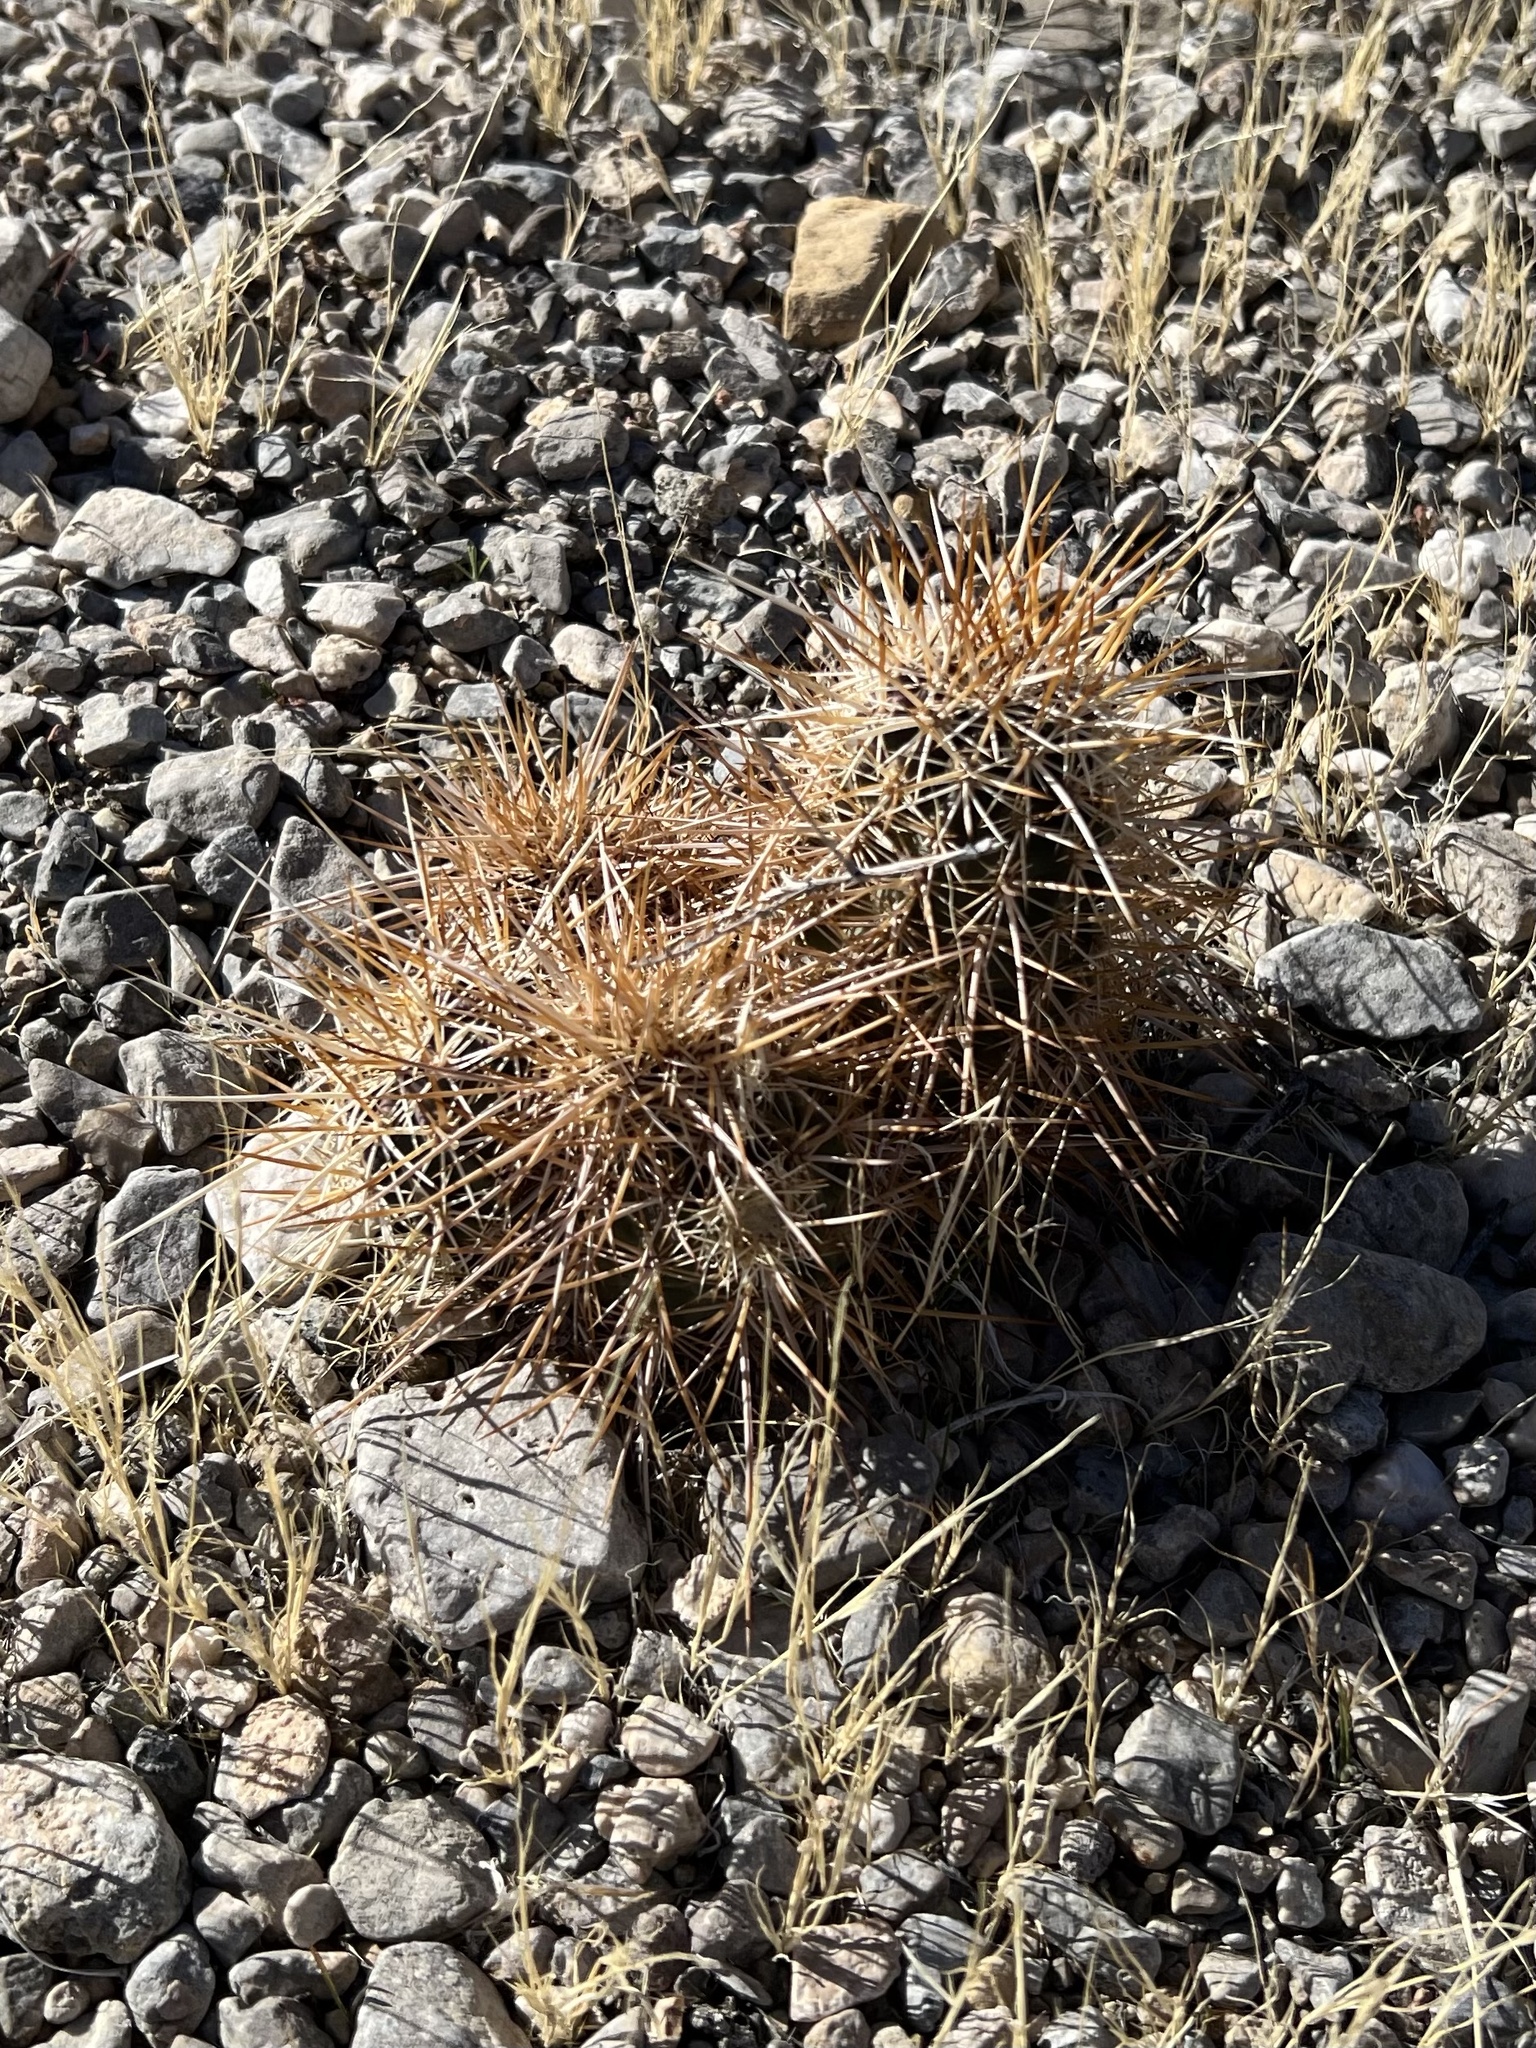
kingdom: Plantae
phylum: Tracheophyta
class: Magnoliopsida
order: Caryophyllales
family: Cactaceae
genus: Echinocereus
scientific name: Echinocereus engelmannii
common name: Engelmann's hedgehog cactus
